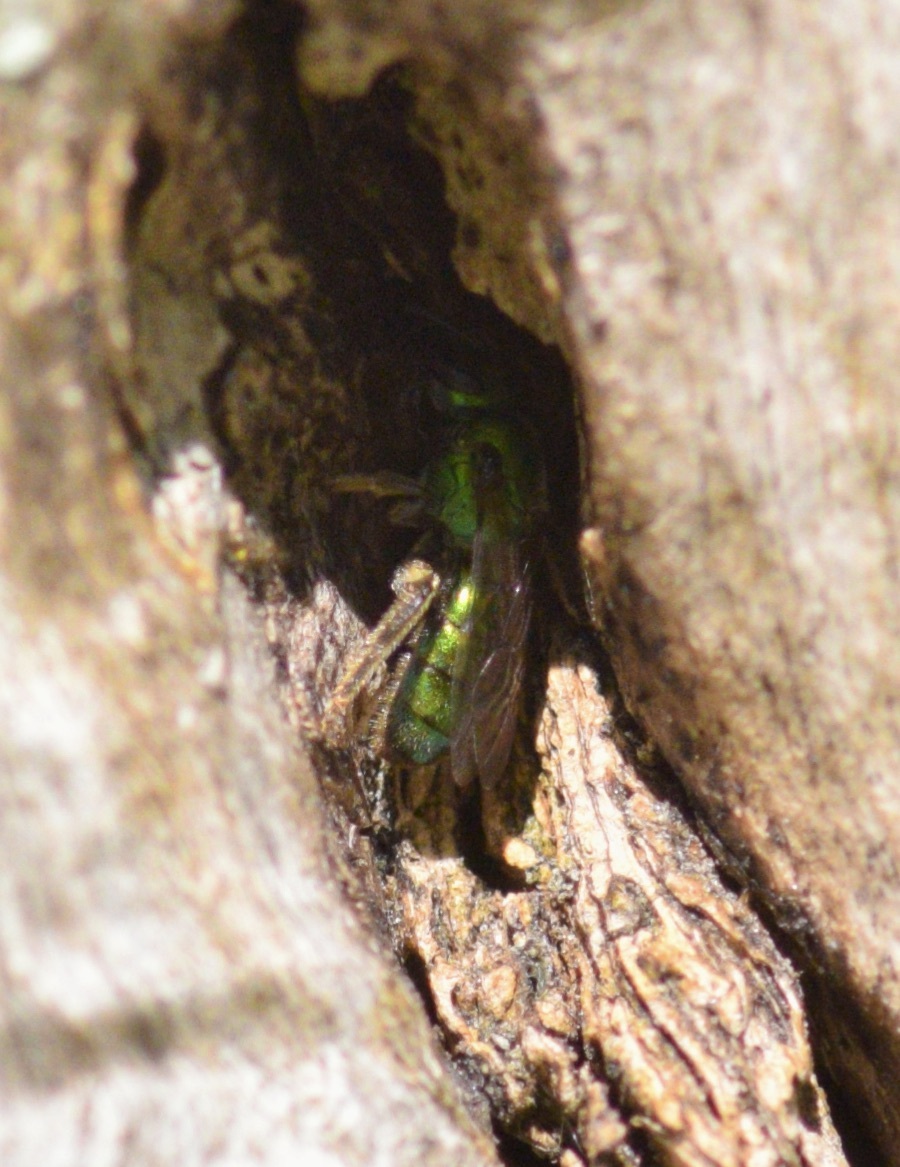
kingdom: Animalia
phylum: Arthropoda
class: Insecta
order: Hymenoptera
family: Halictidae
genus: Augochlora
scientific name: Augochlora pura
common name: Pure green sweat bee
